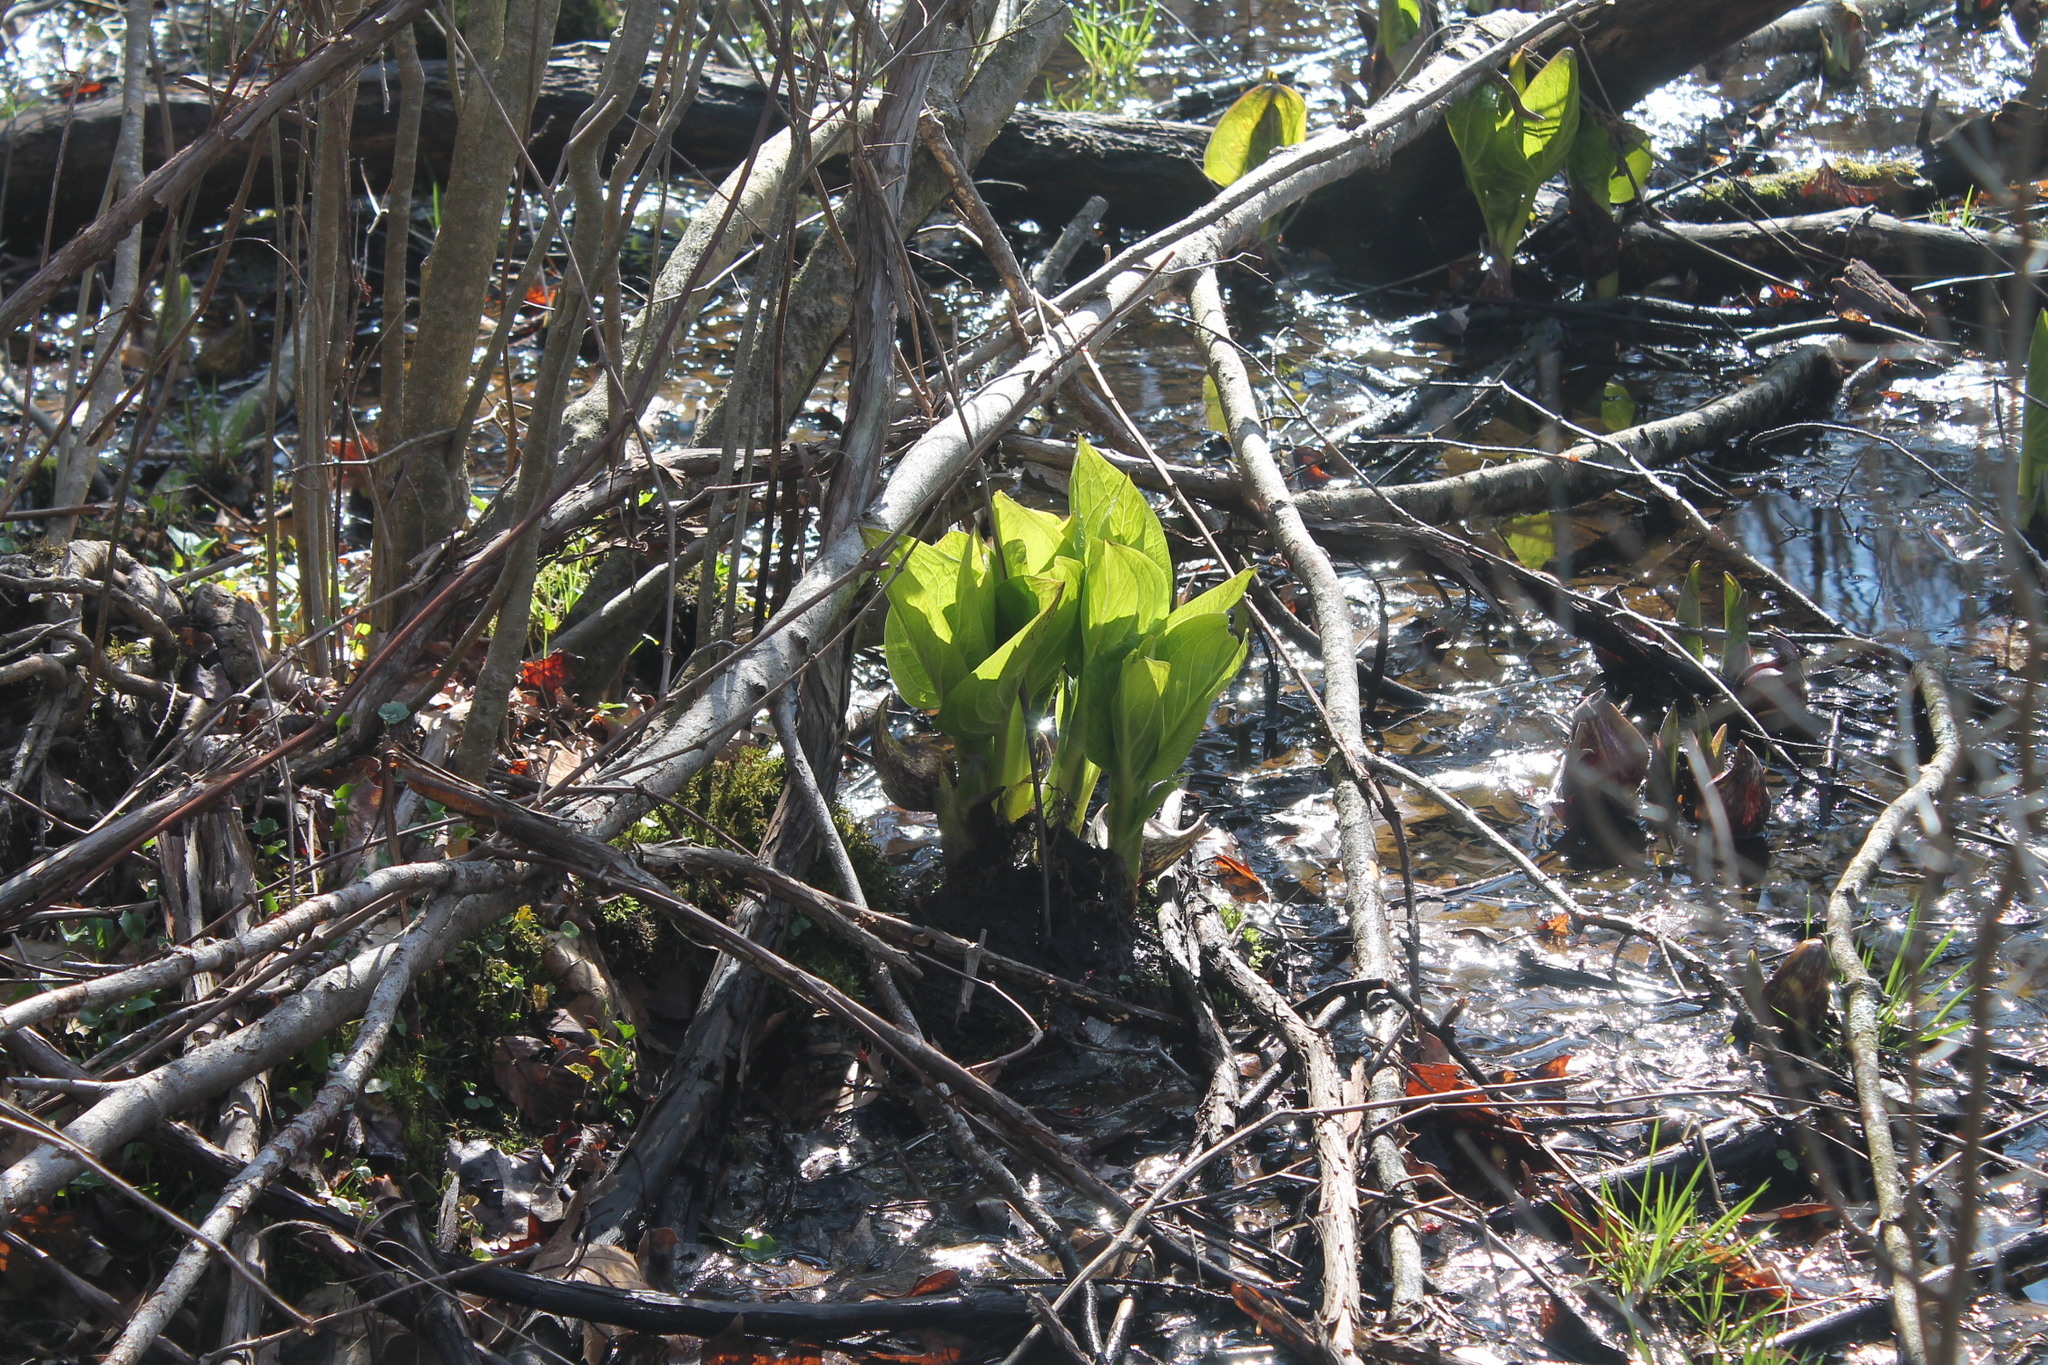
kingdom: Plantae
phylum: Tracheophyta
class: Liliopsida
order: Alismatales
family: Araceae
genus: Symplocarpus
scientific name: Symplocarpus foetidus
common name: Eastern skunk cabbage
